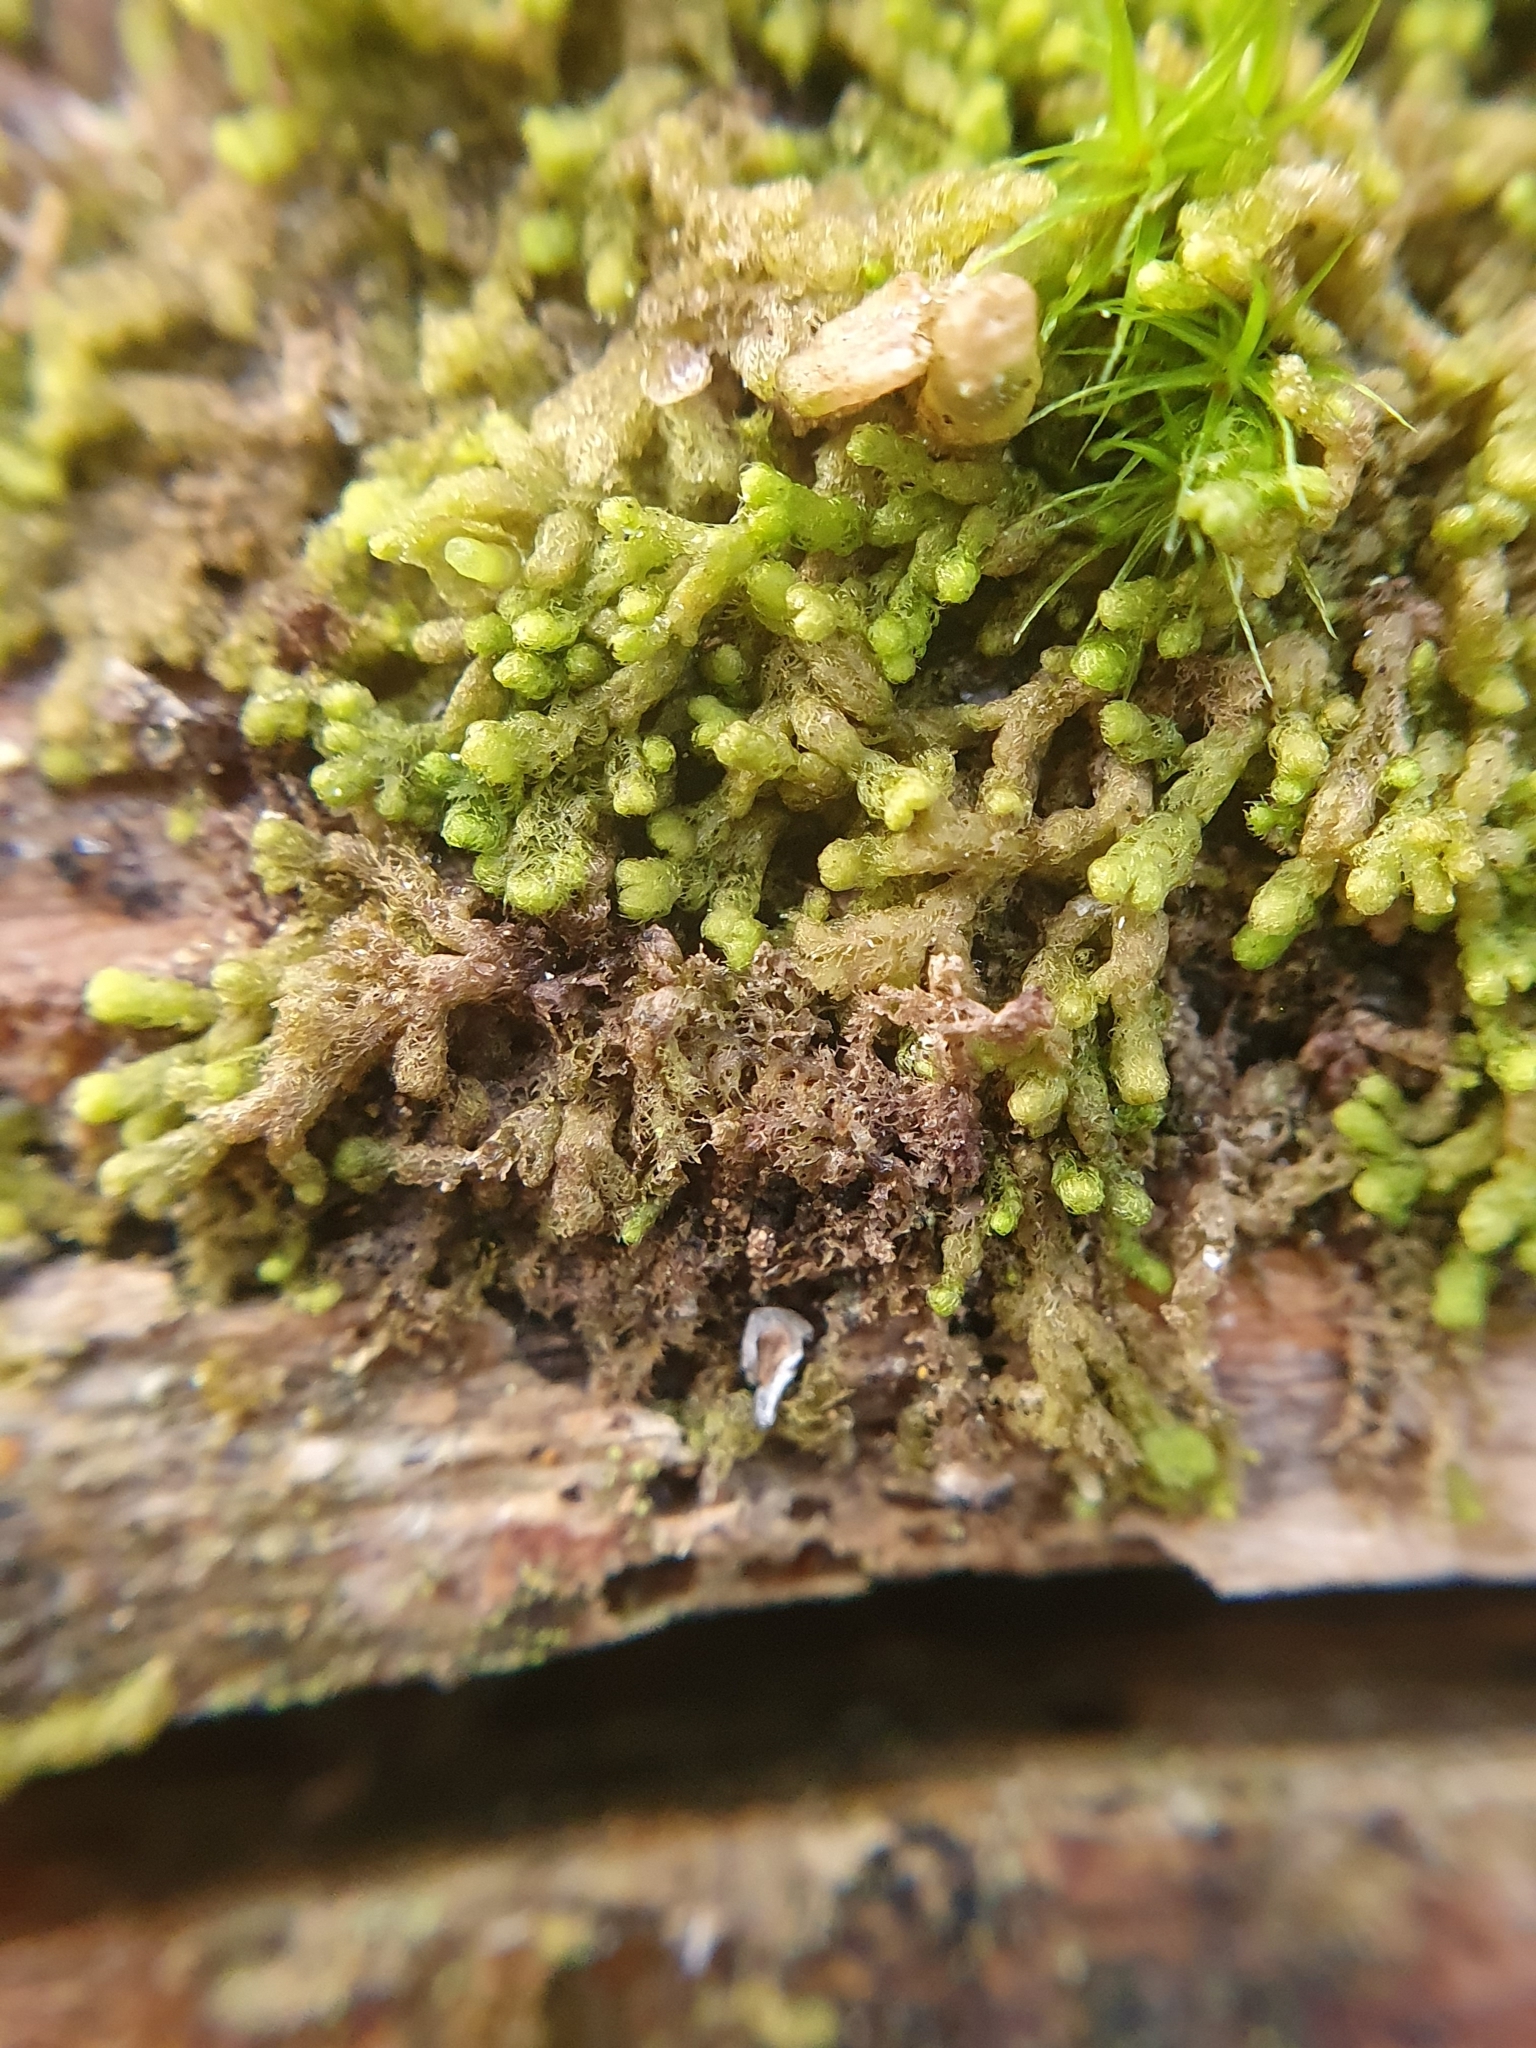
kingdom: Plantae
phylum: Marchantiophyta
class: Jungermanniopsida
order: Ptilidiales
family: Ptilidiaceae
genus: Ptilidium
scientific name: Ptilidium pulcherrimum
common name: Tree fringewort
